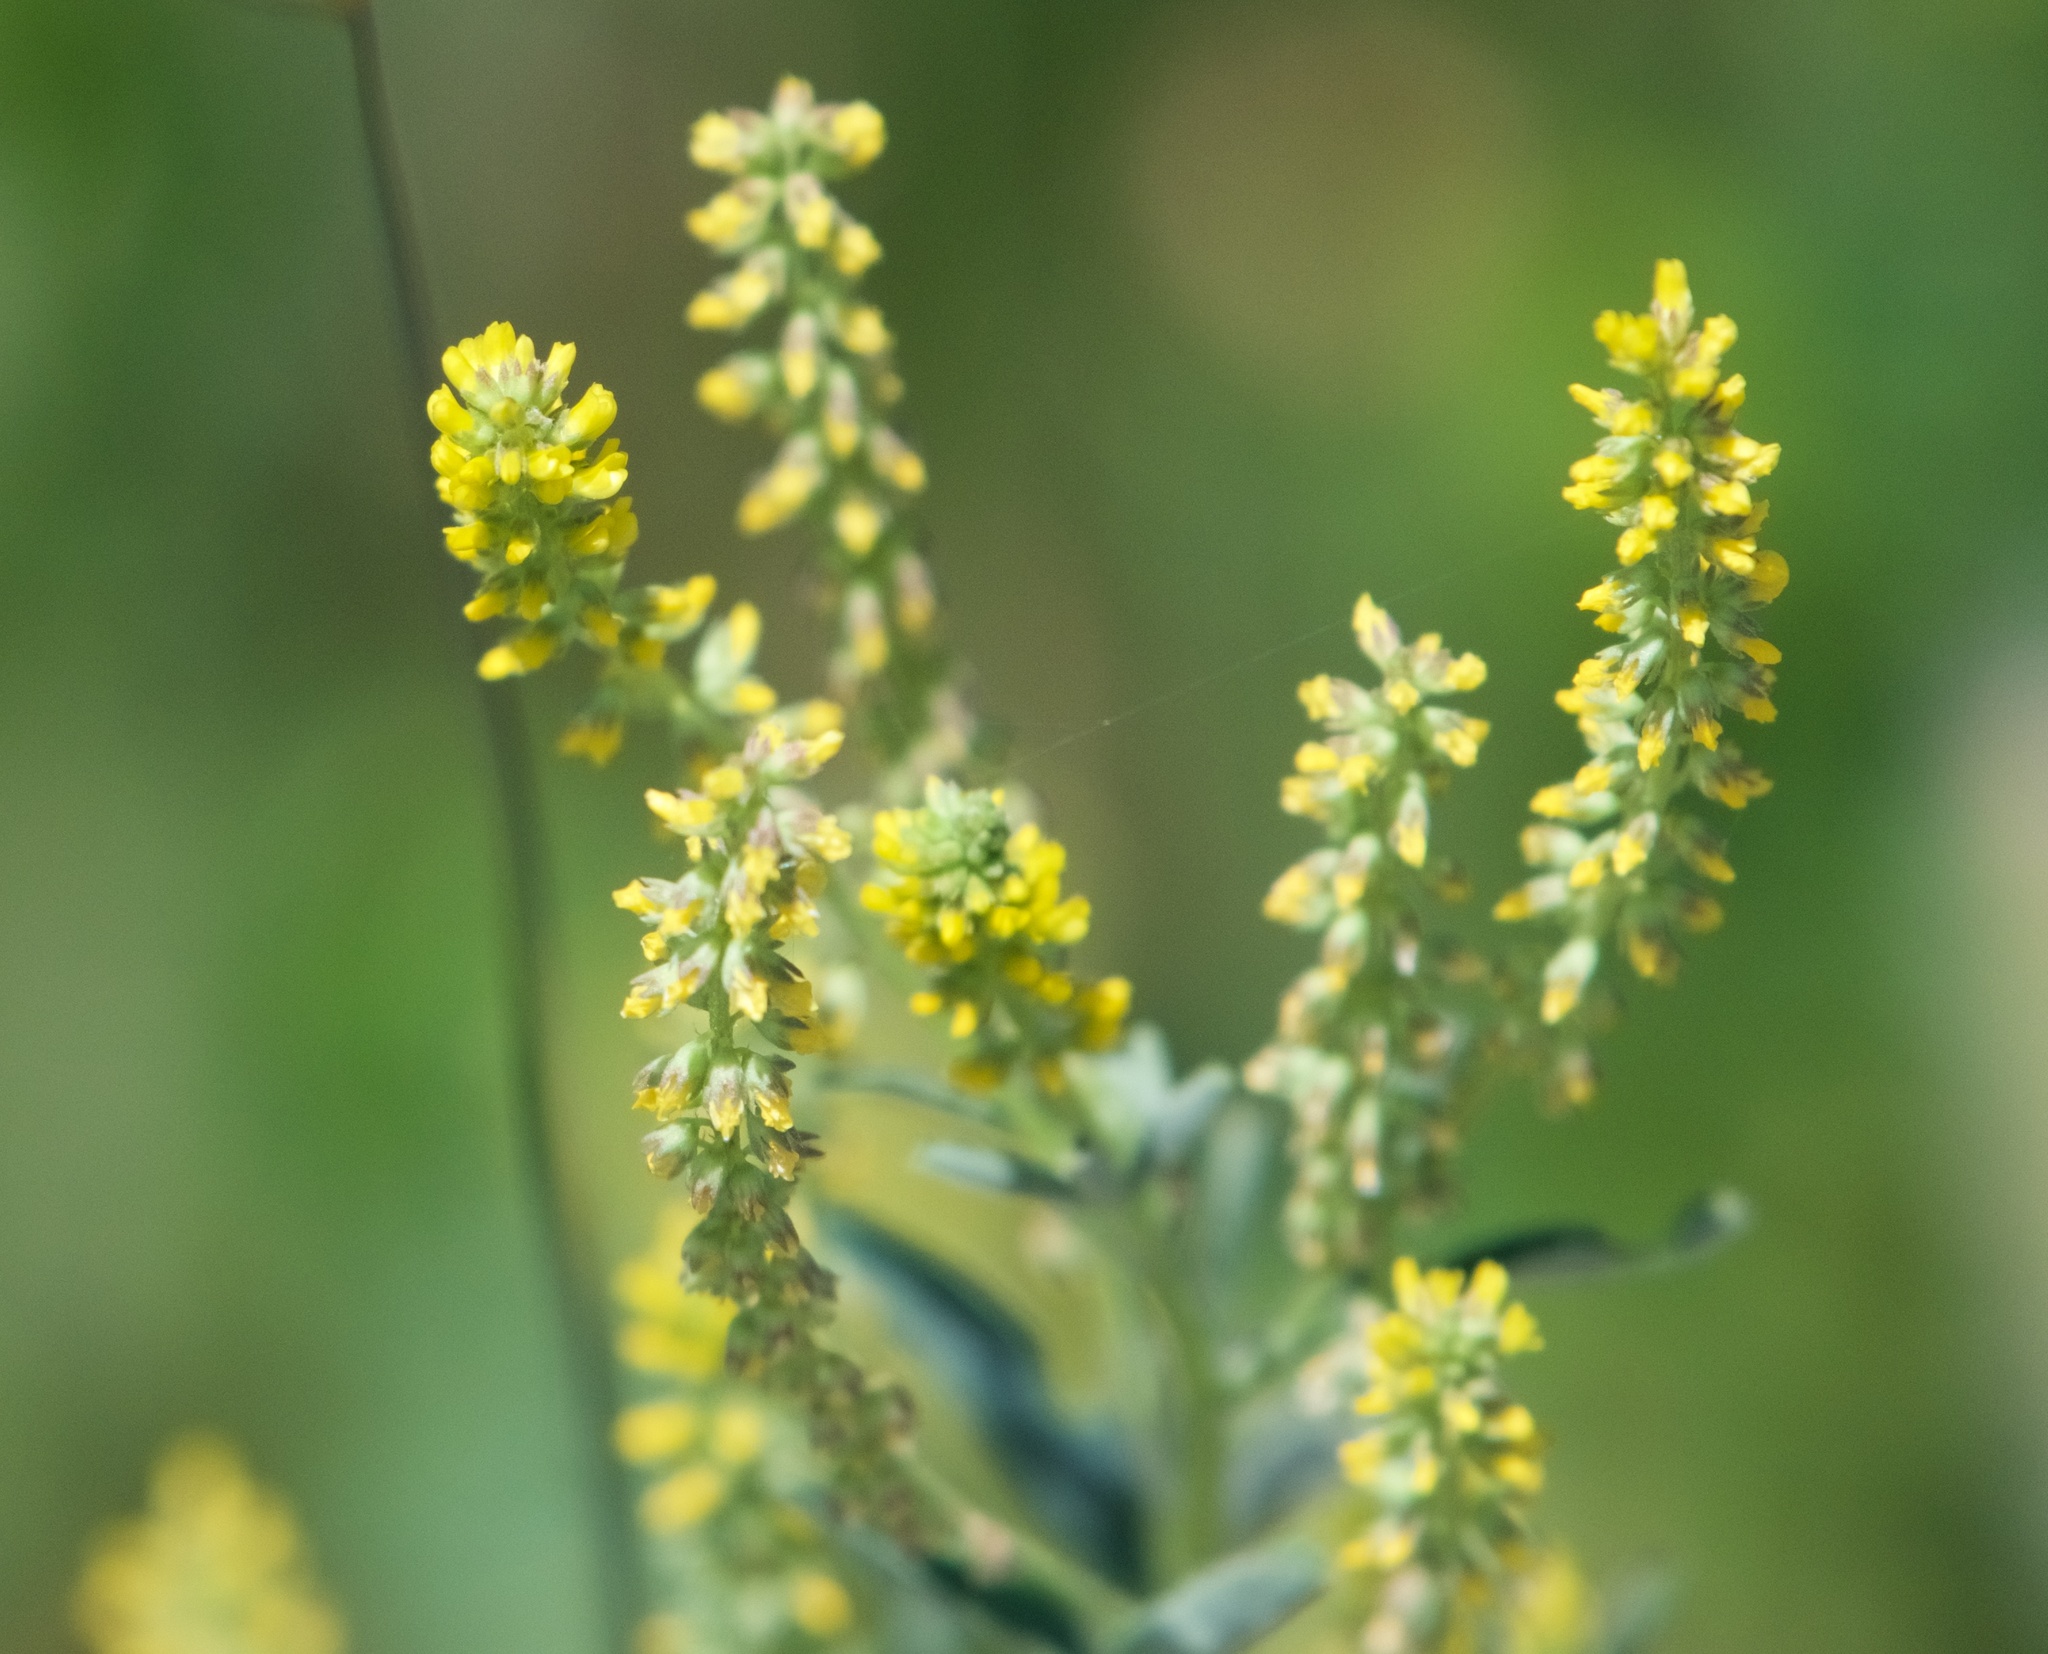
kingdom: Plantae
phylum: Tracheophyta
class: Magnoliopsida
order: Fabales
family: Fabaceae
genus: Melilotus
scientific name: Melilotus indicus
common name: Small melilot
